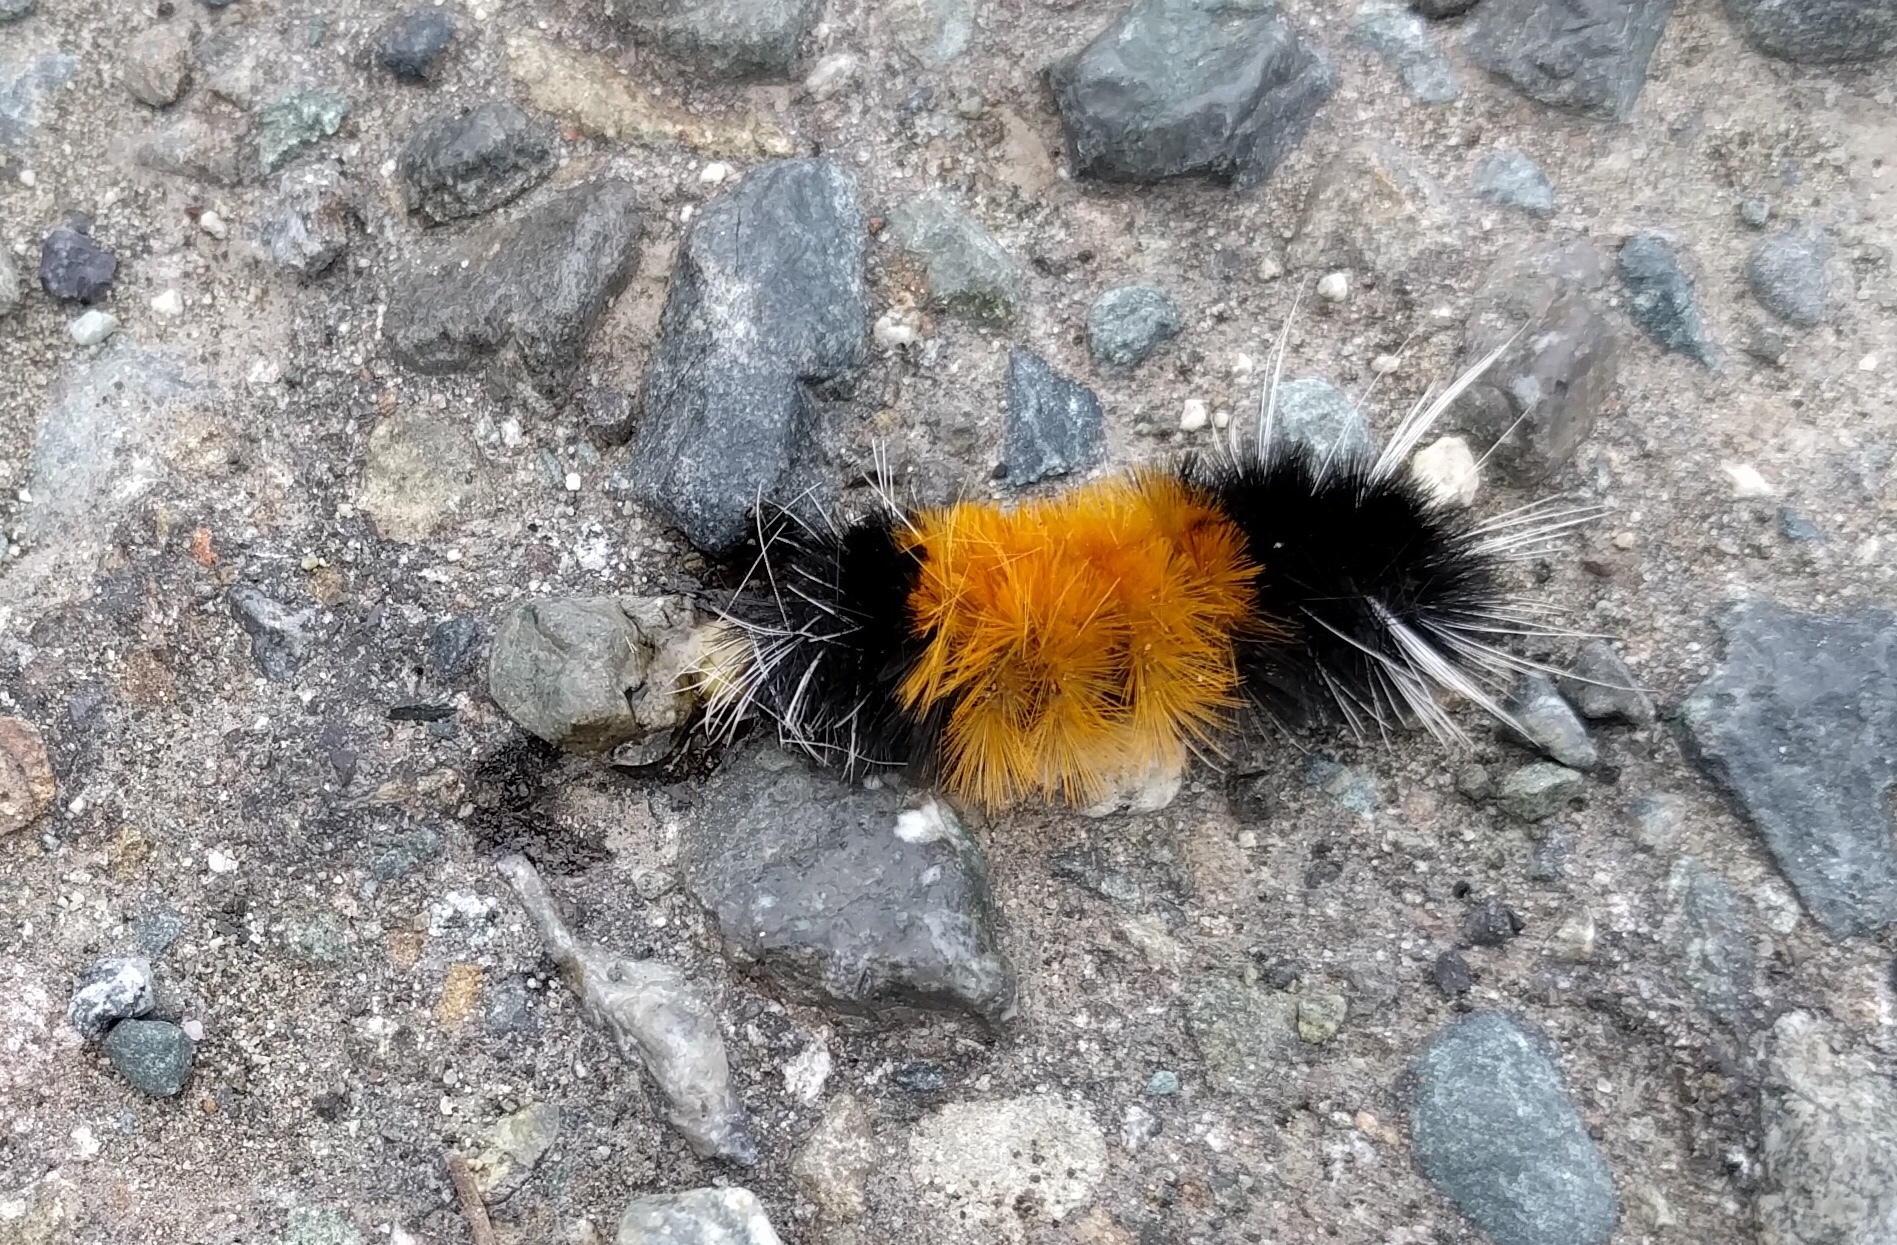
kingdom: Animalia
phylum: Arthropoda
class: Insecta
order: Lepidoptera
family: Erebidae
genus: Lophocampa
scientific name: Lophocampa maculata
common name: Spotted tussock moth
